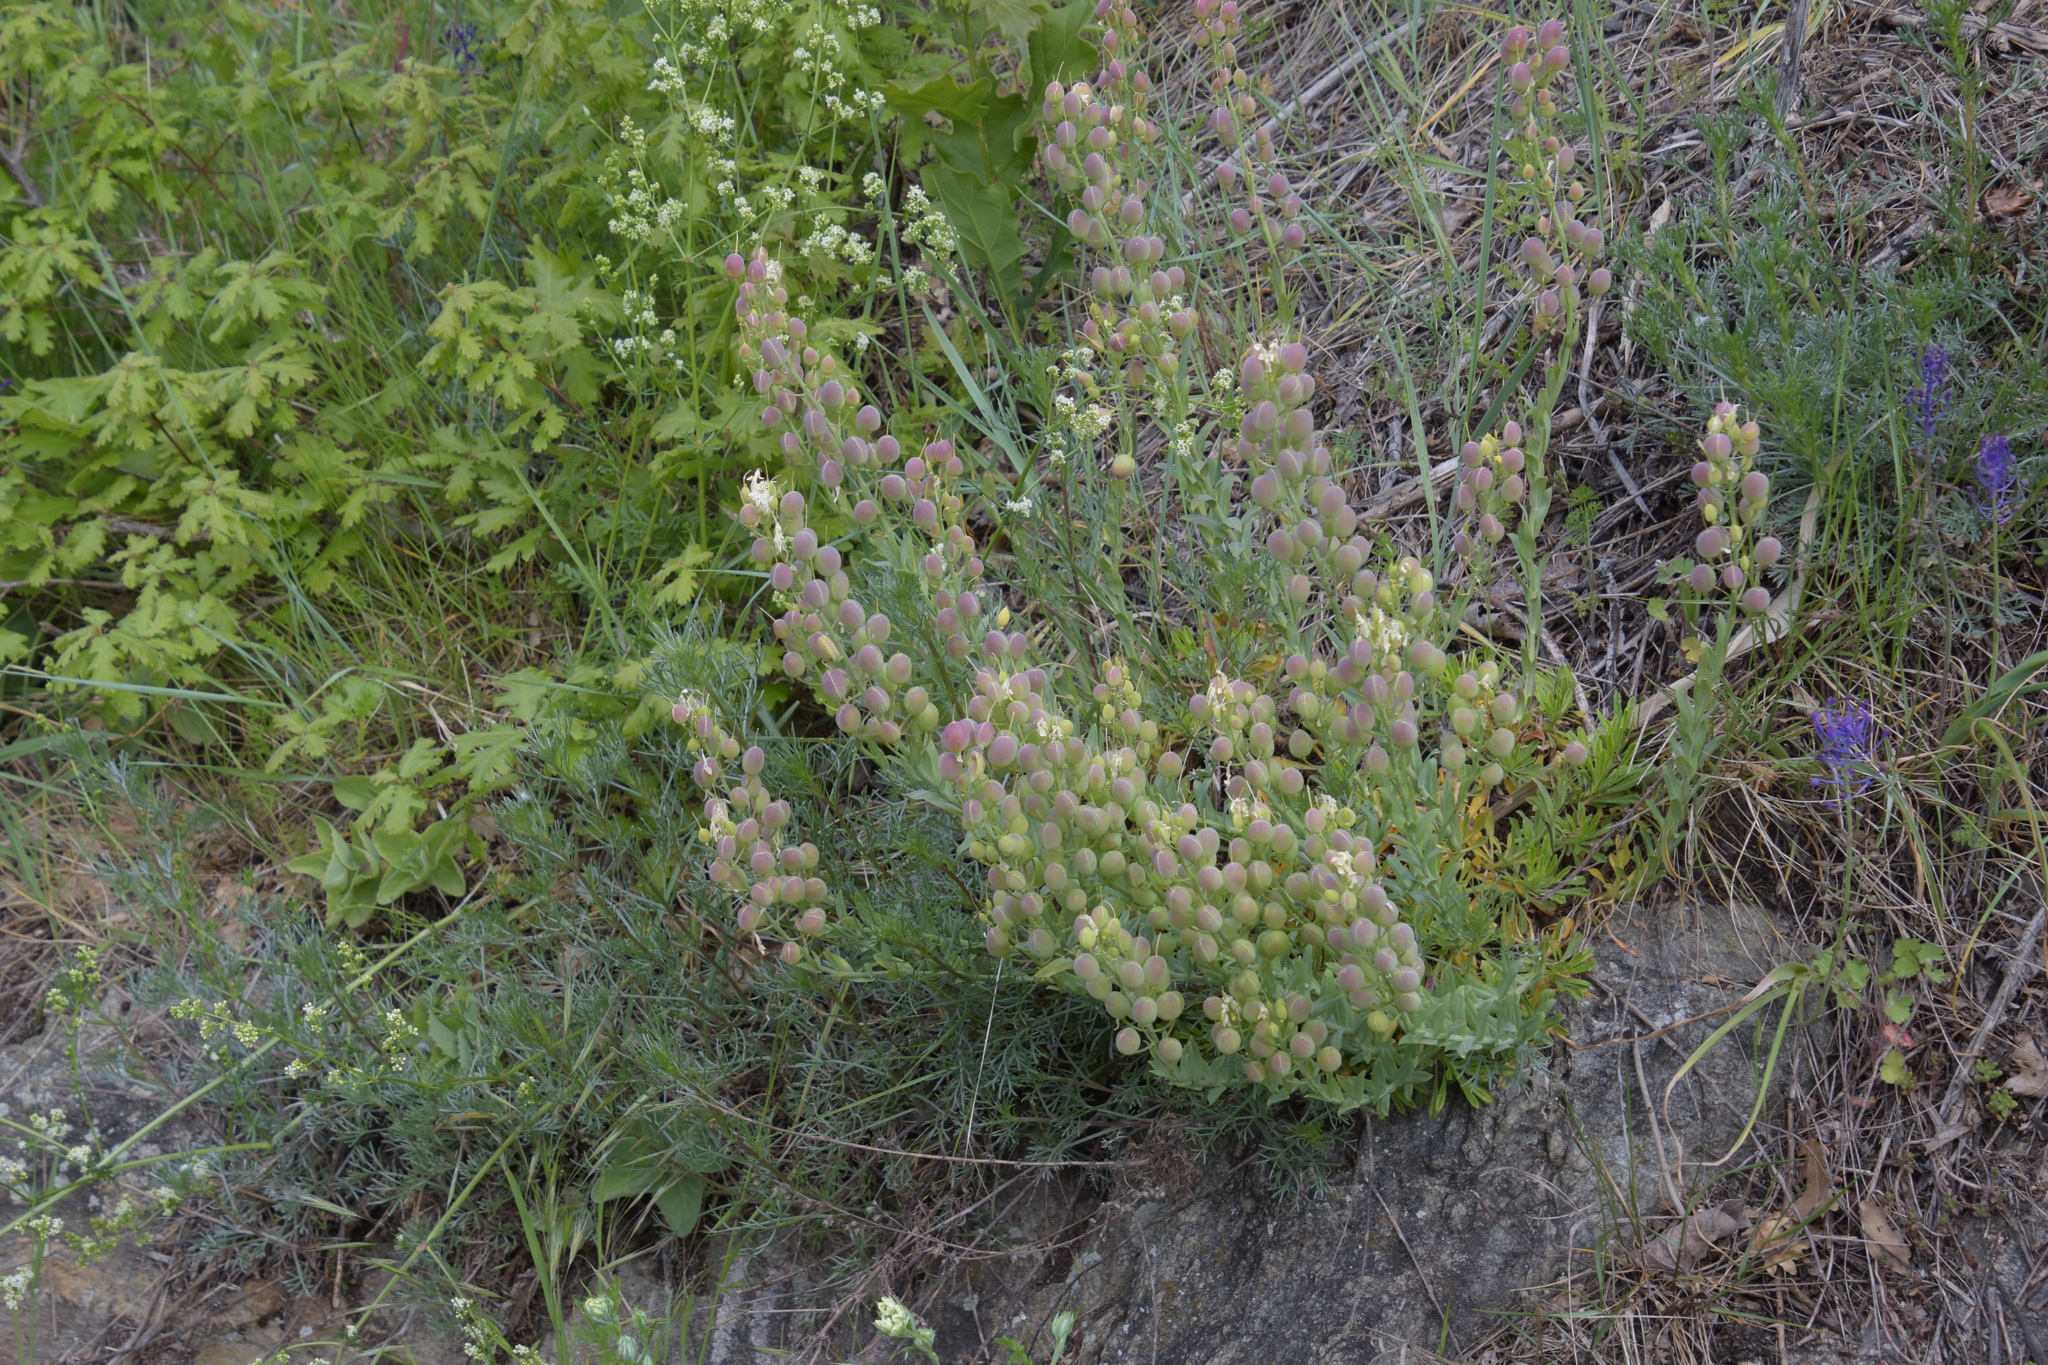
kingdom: Plantae
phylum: Tracheophyta
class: Magnoliopsida
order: Brassicales
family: Brassicaceae
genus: Alyssoides
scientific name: Alyssoides utriculata
